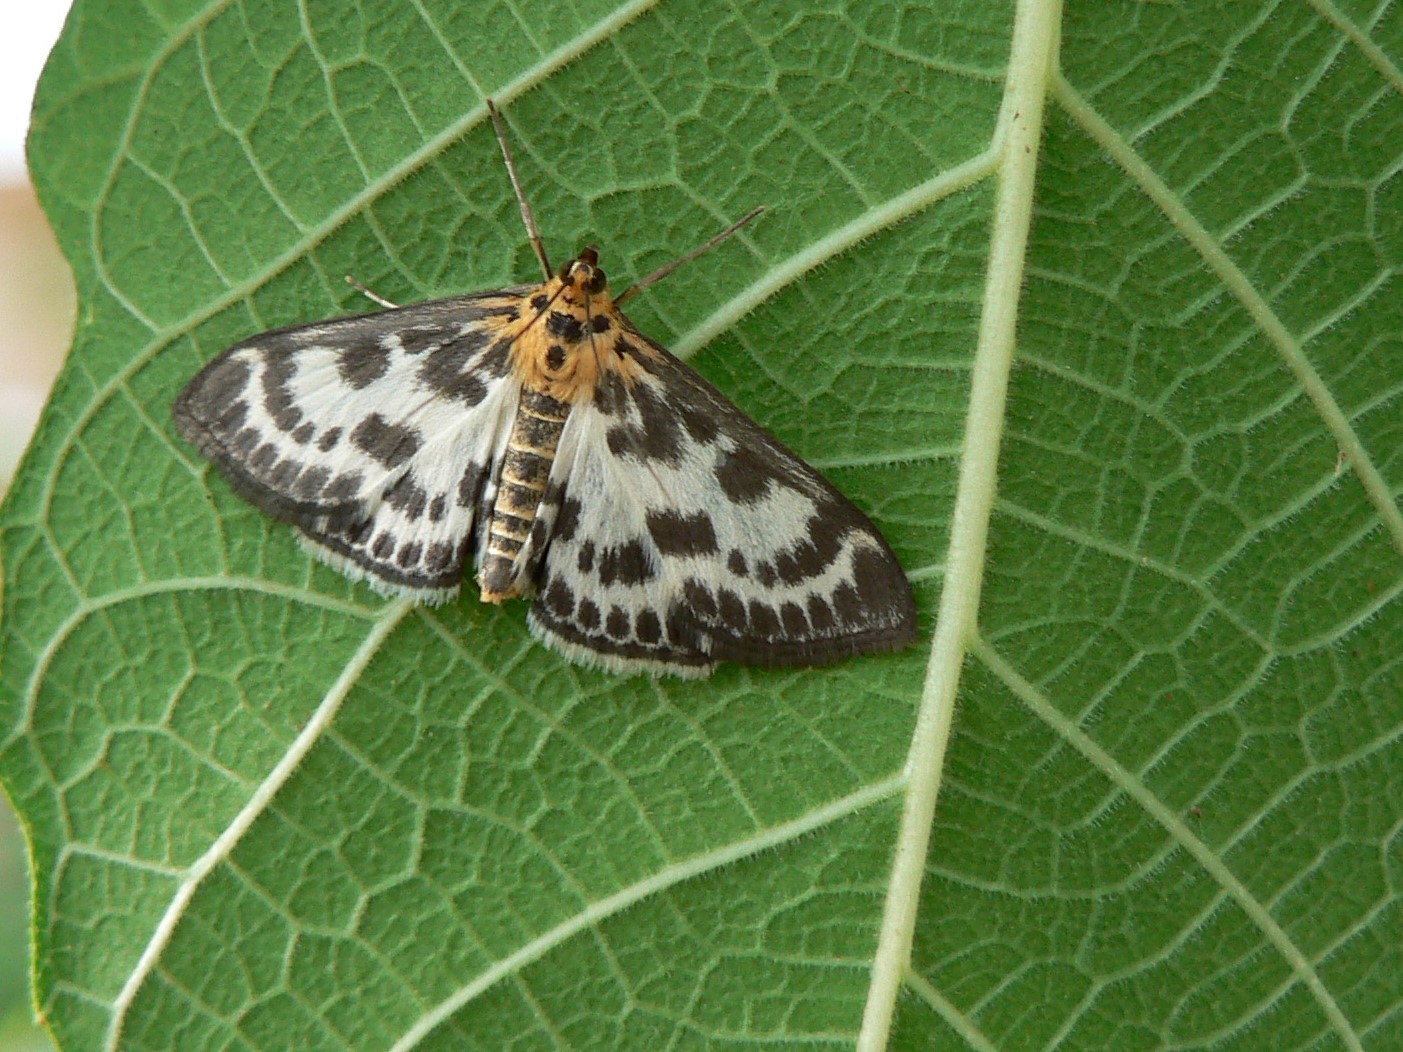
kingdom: Animalia
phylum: Arthropoda
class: Insecta
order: Lepidoptera
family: Crambidae
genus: Anania
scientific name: Anania hortulata
